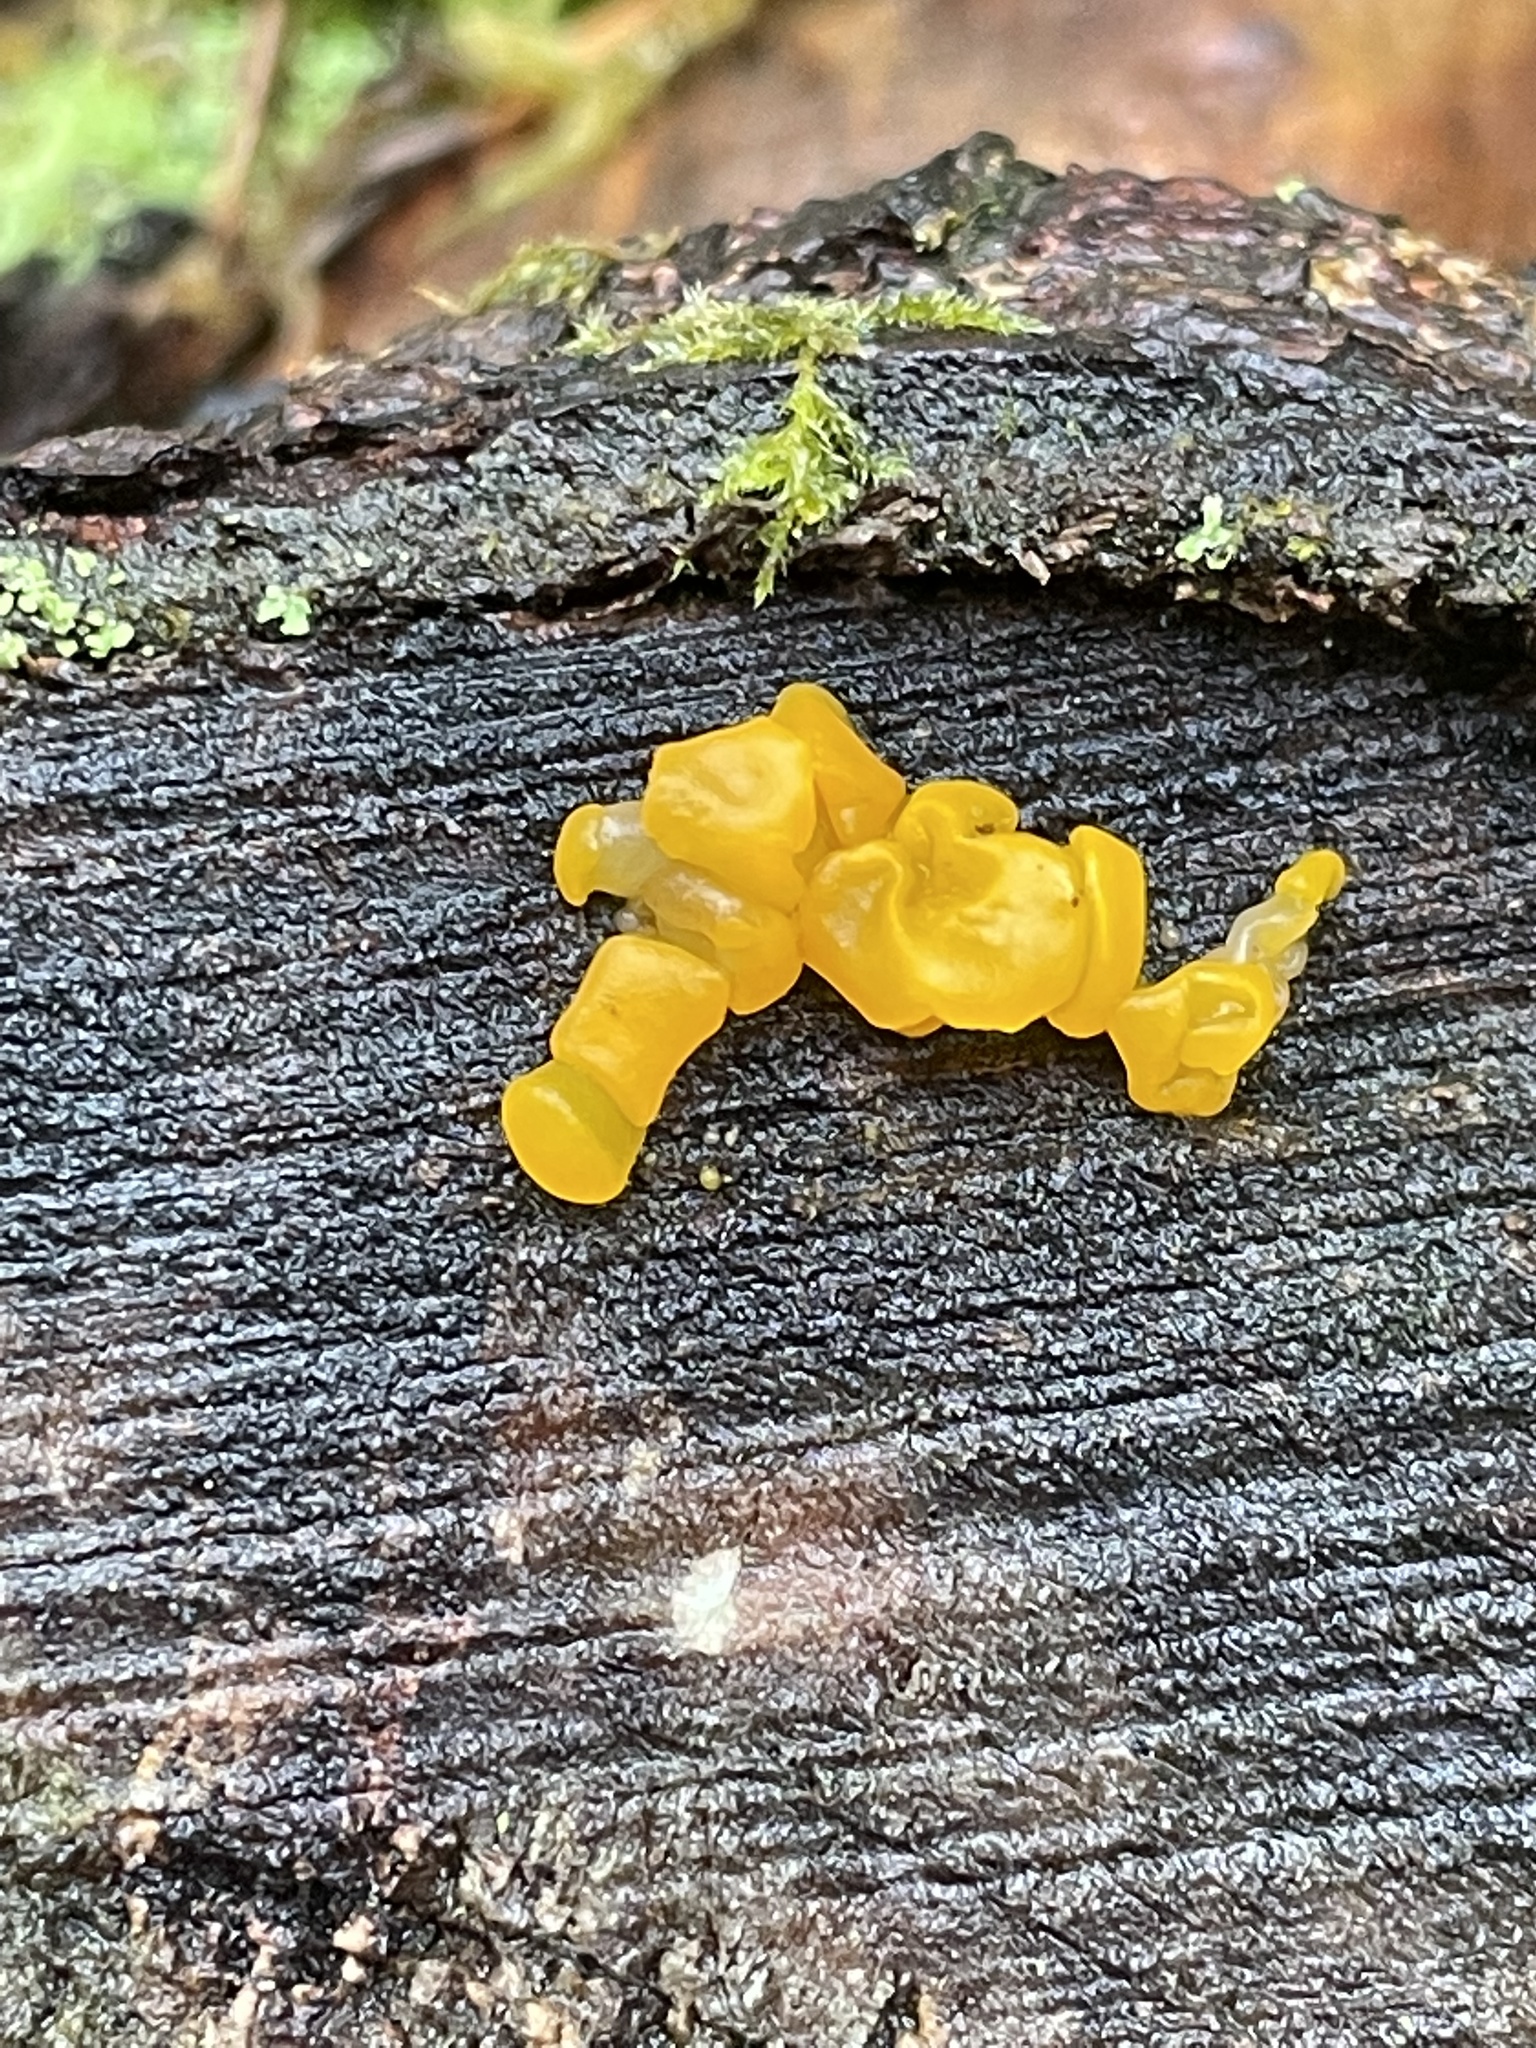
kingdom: Fungi
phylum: Basidiomycota
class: Dacrymycetes
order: Dacrymycetales
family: Dacrymycetaceae
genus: Dacrymyces
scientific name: Dacrymyces chrysospermus
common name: Orange jelly spot
